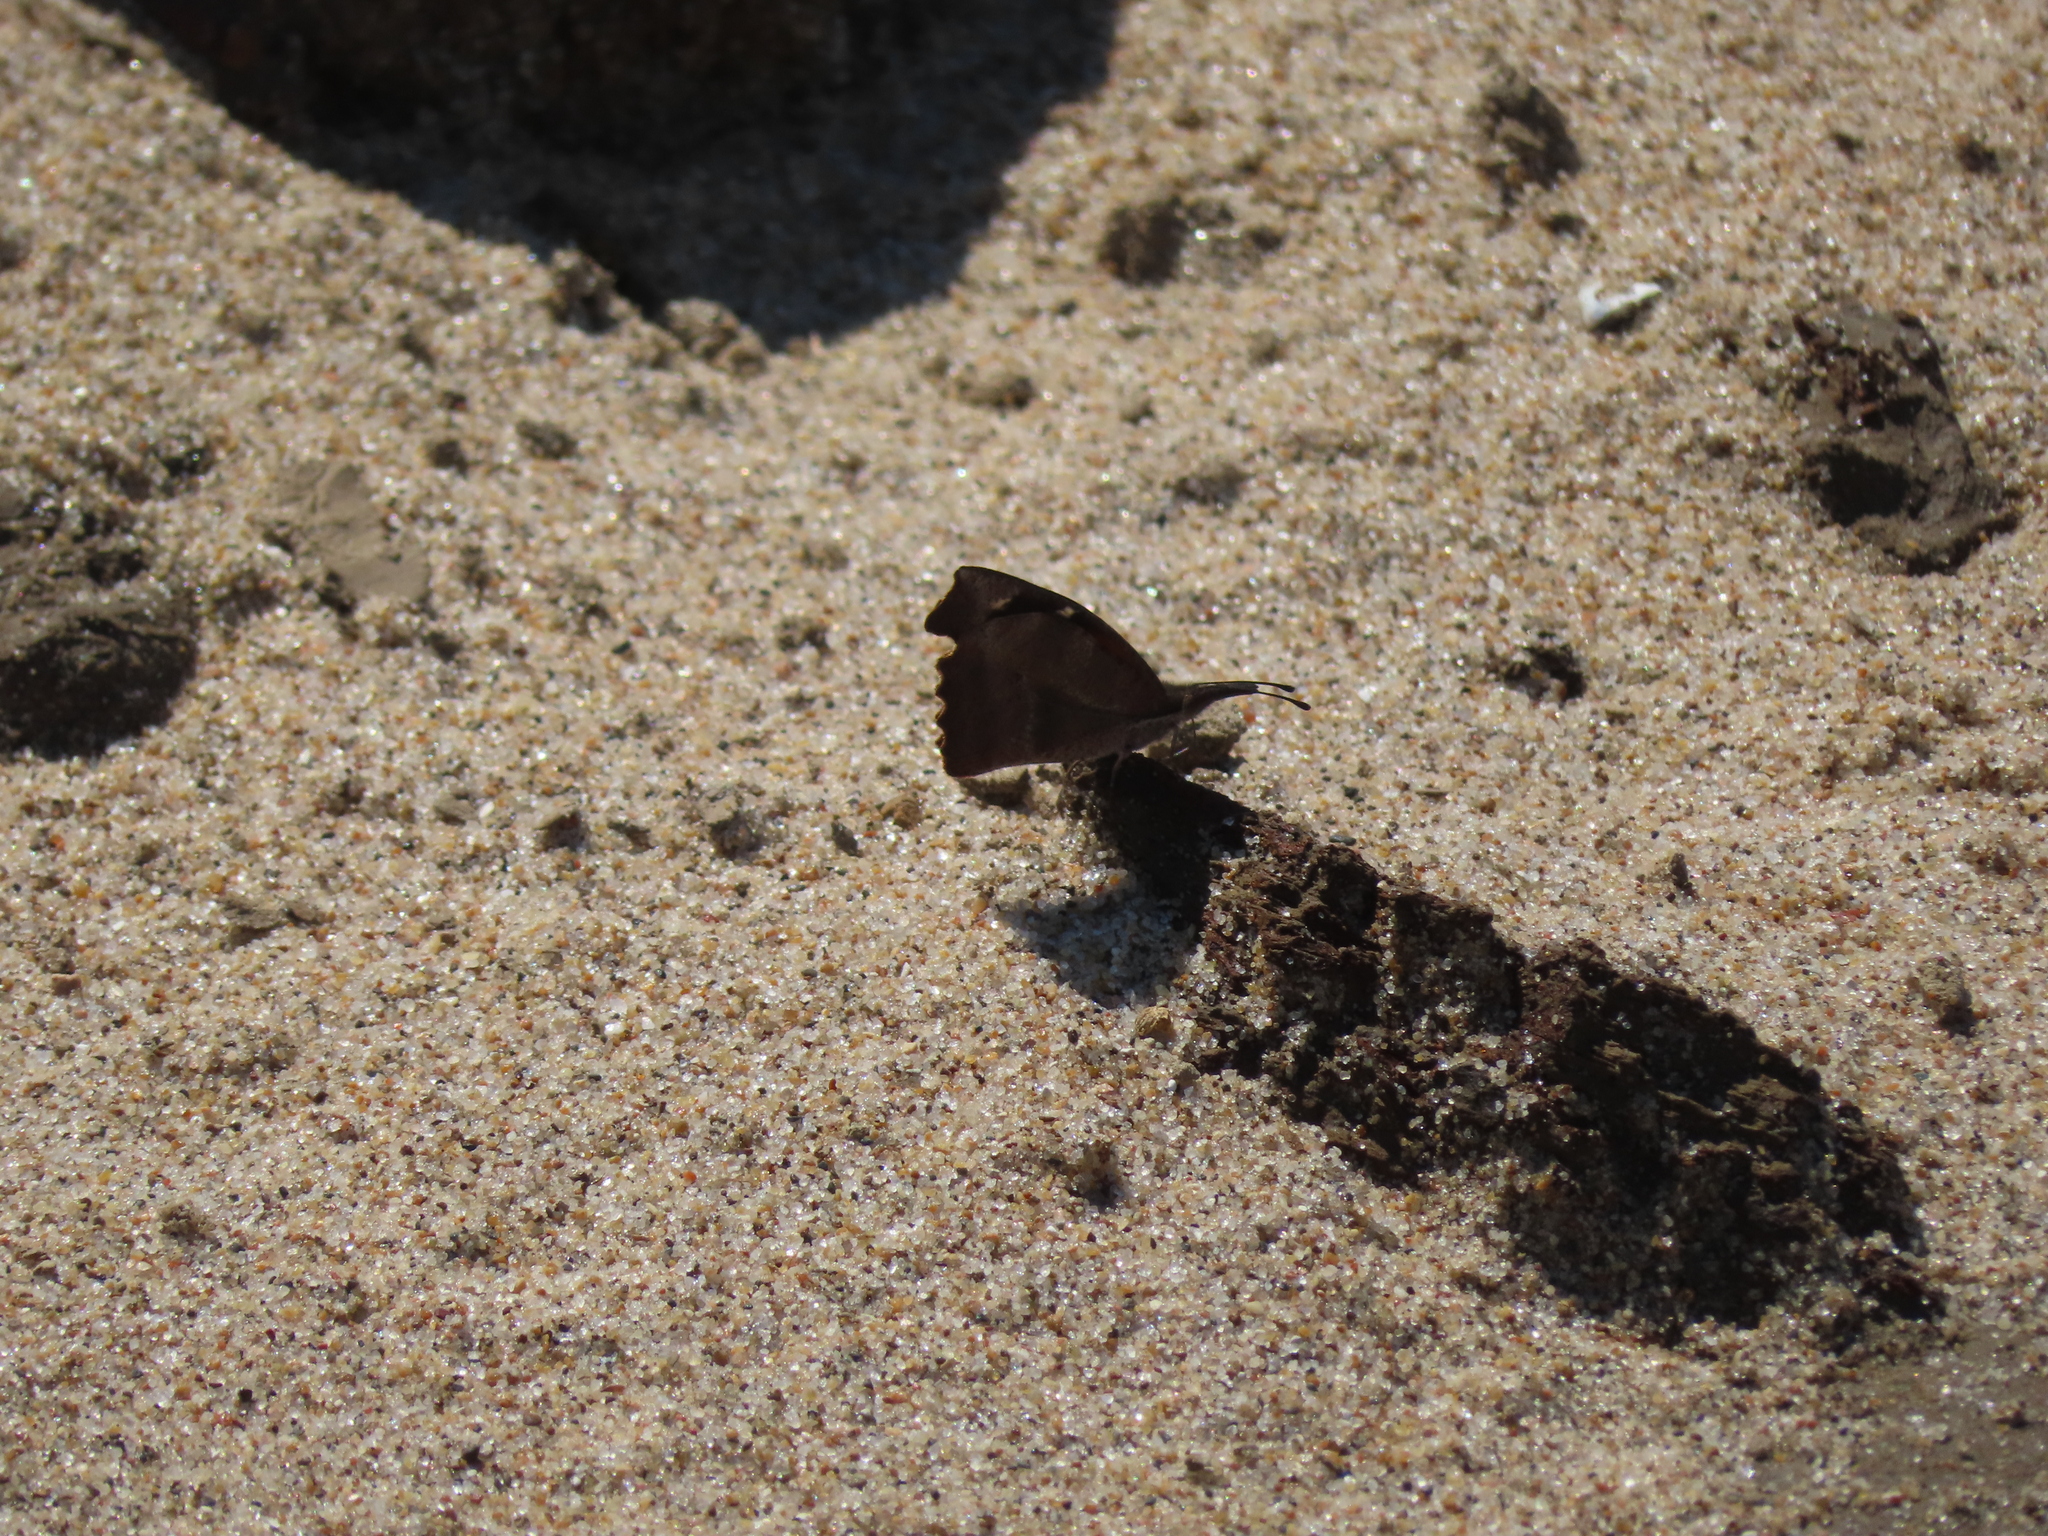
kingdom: Animalia
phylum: Arthropoda
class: Insecta
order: Lepidoptera
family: Nymphalidae
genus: Libytheana
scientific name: Libytheana carinenta
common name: American snout
